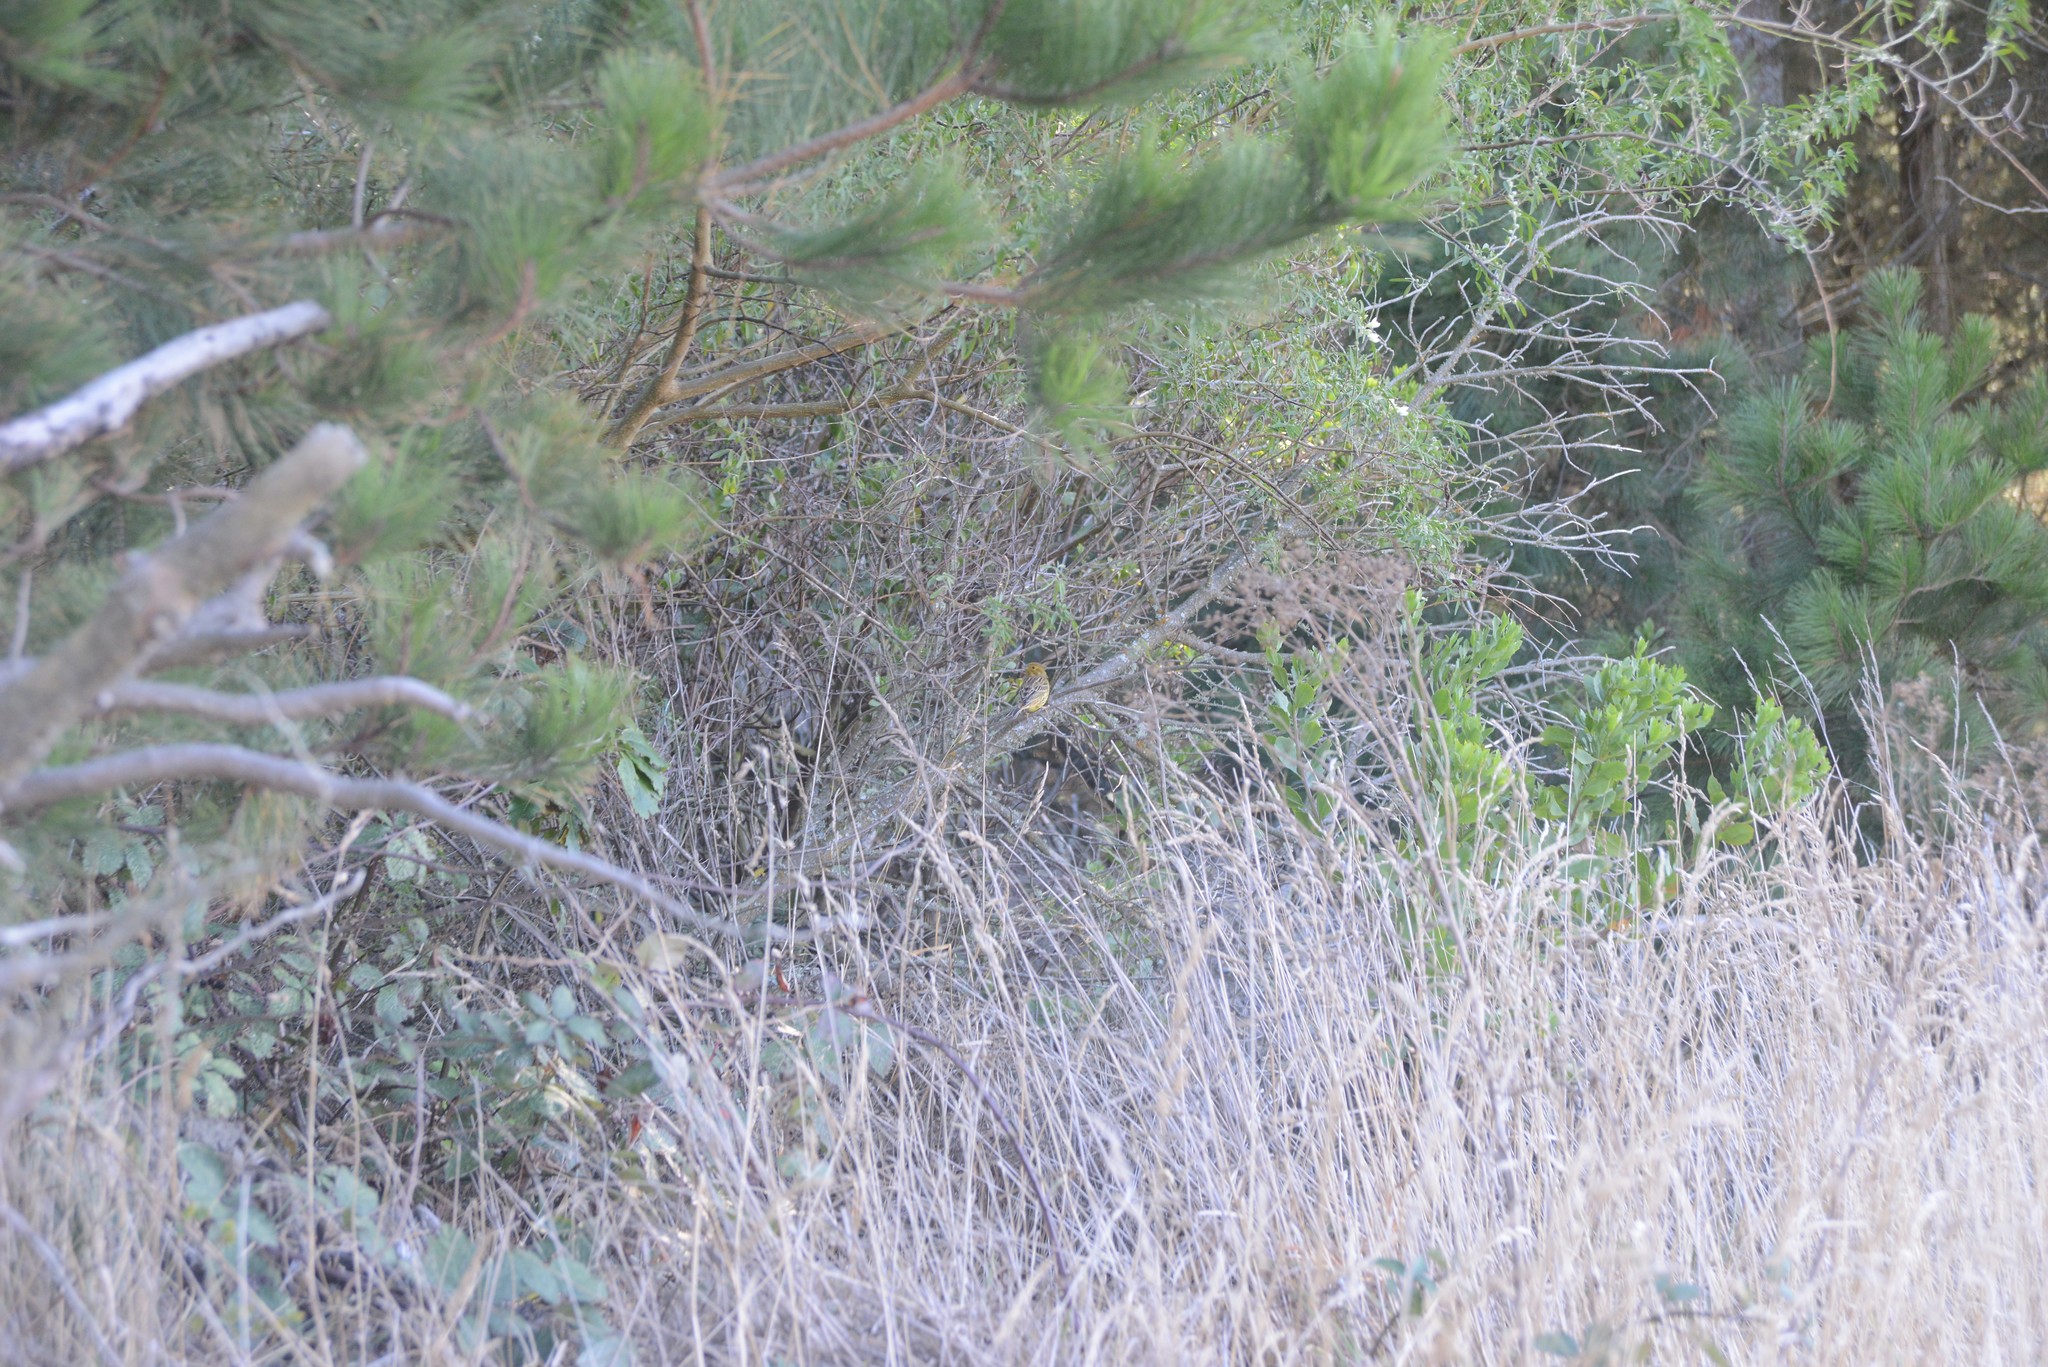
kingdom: Animalia
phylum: Chordata
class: Aves
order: Passeriformes
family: Emberizidae
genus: Emberiza
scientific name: Emberiza citrinella
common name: Yellowhammer
